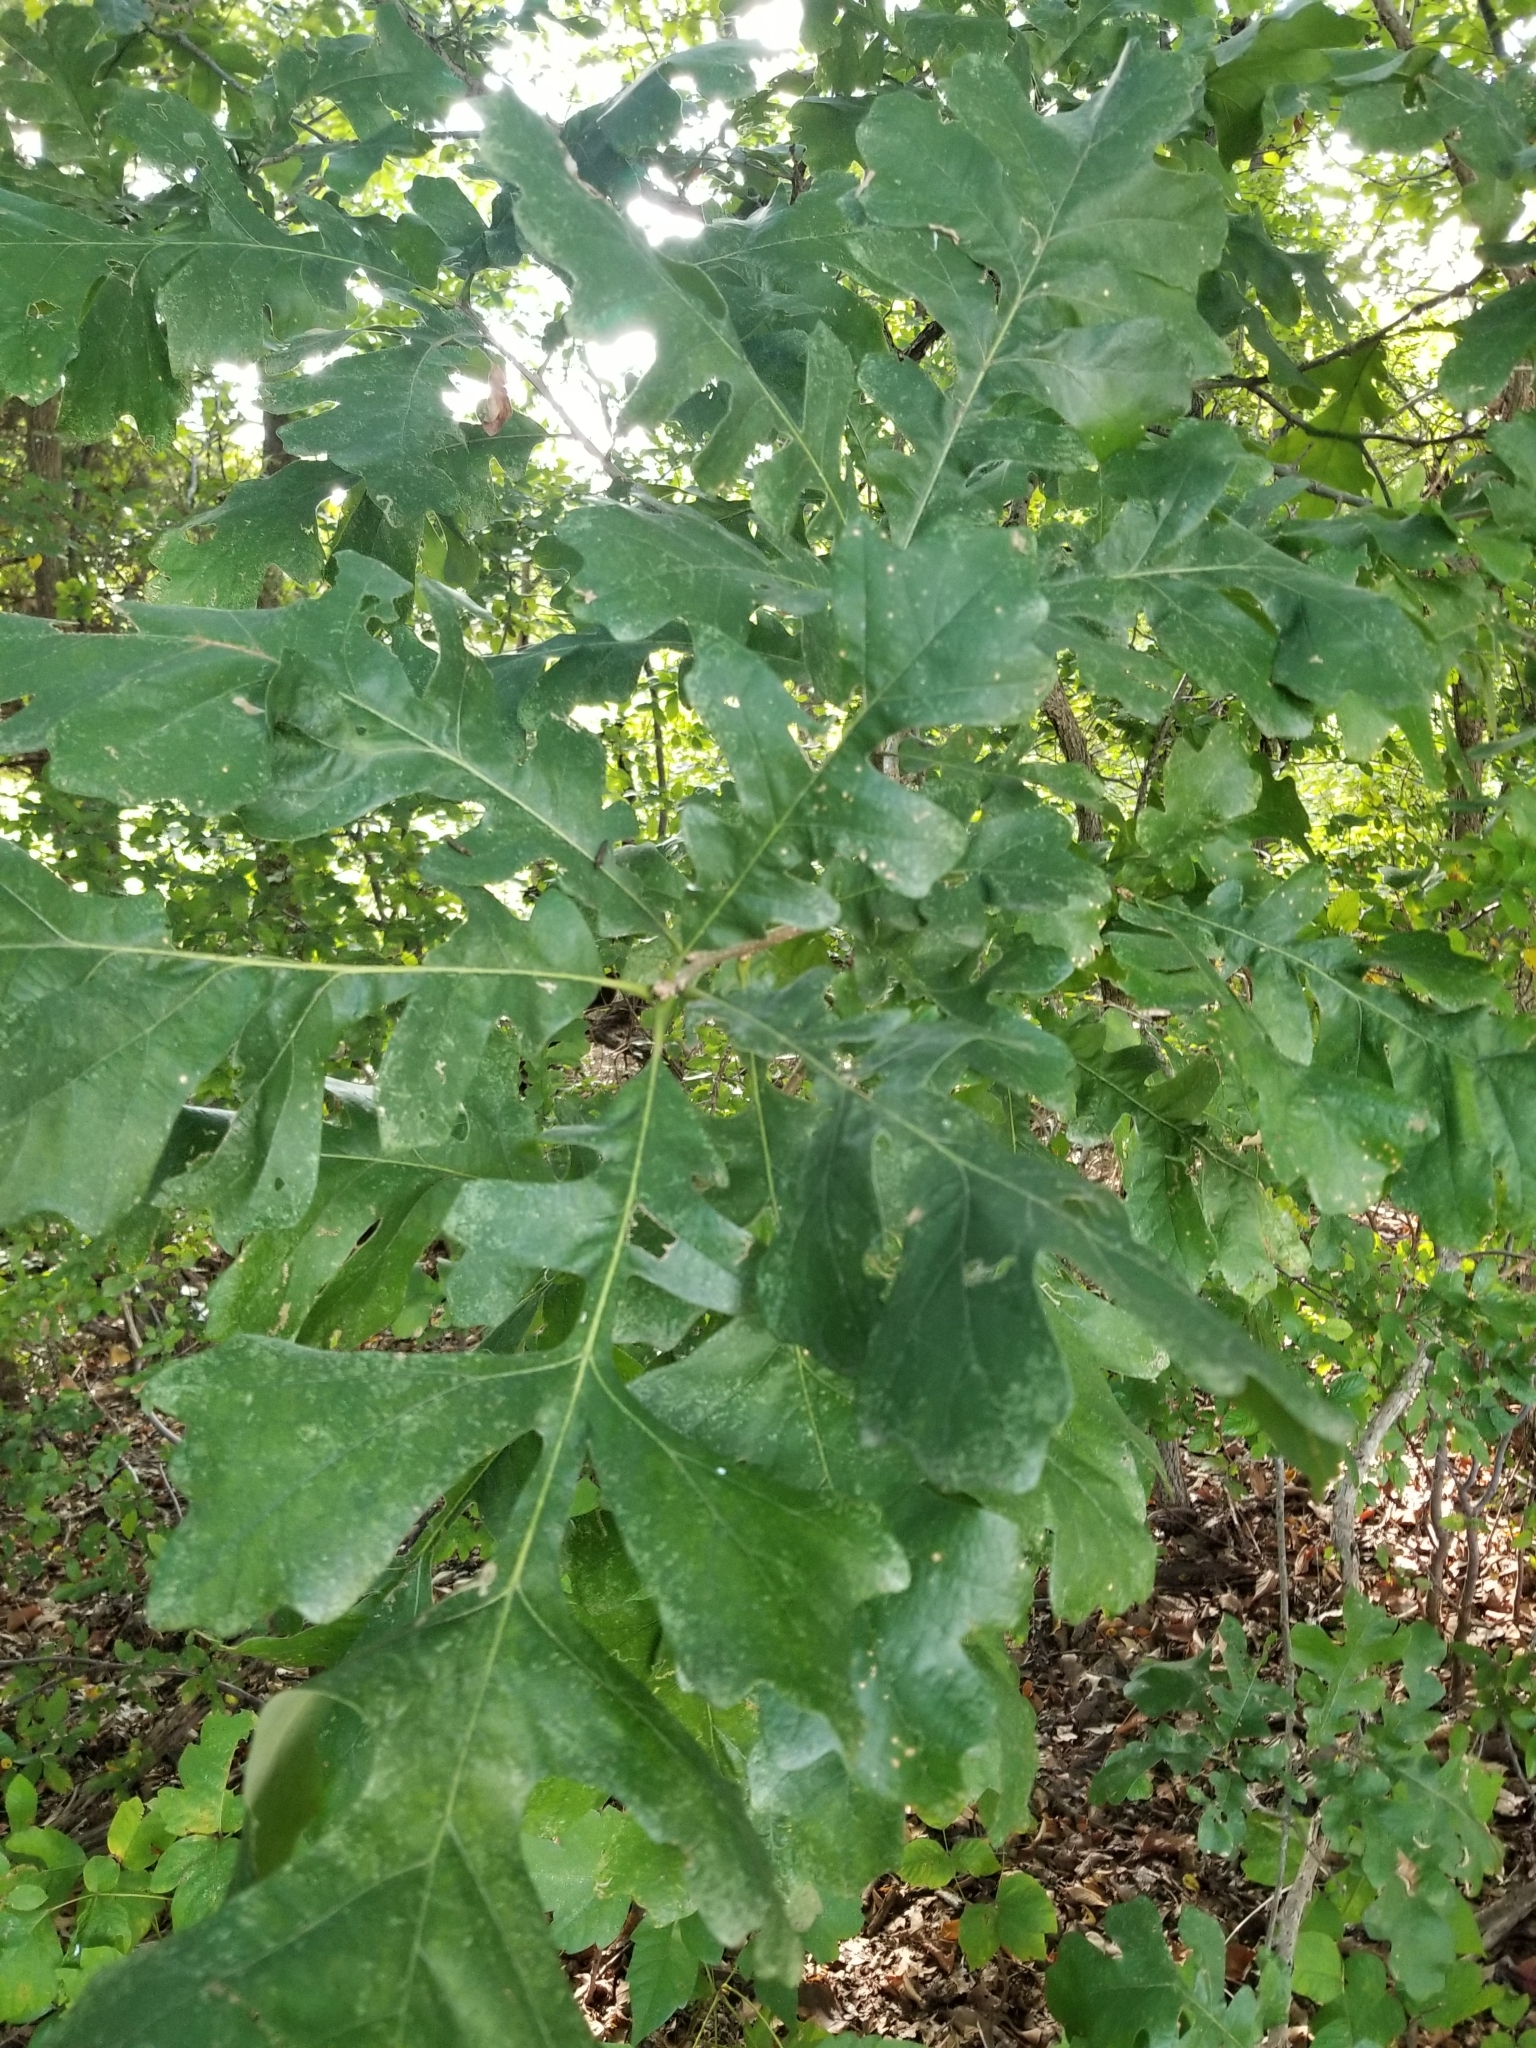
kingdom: Plantae
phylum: Tracheophyta
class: Magnoliopsida
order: Fagales
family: Fagaceae
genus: Quercus
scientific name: Quercus macrocarpa
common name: Bur oak
